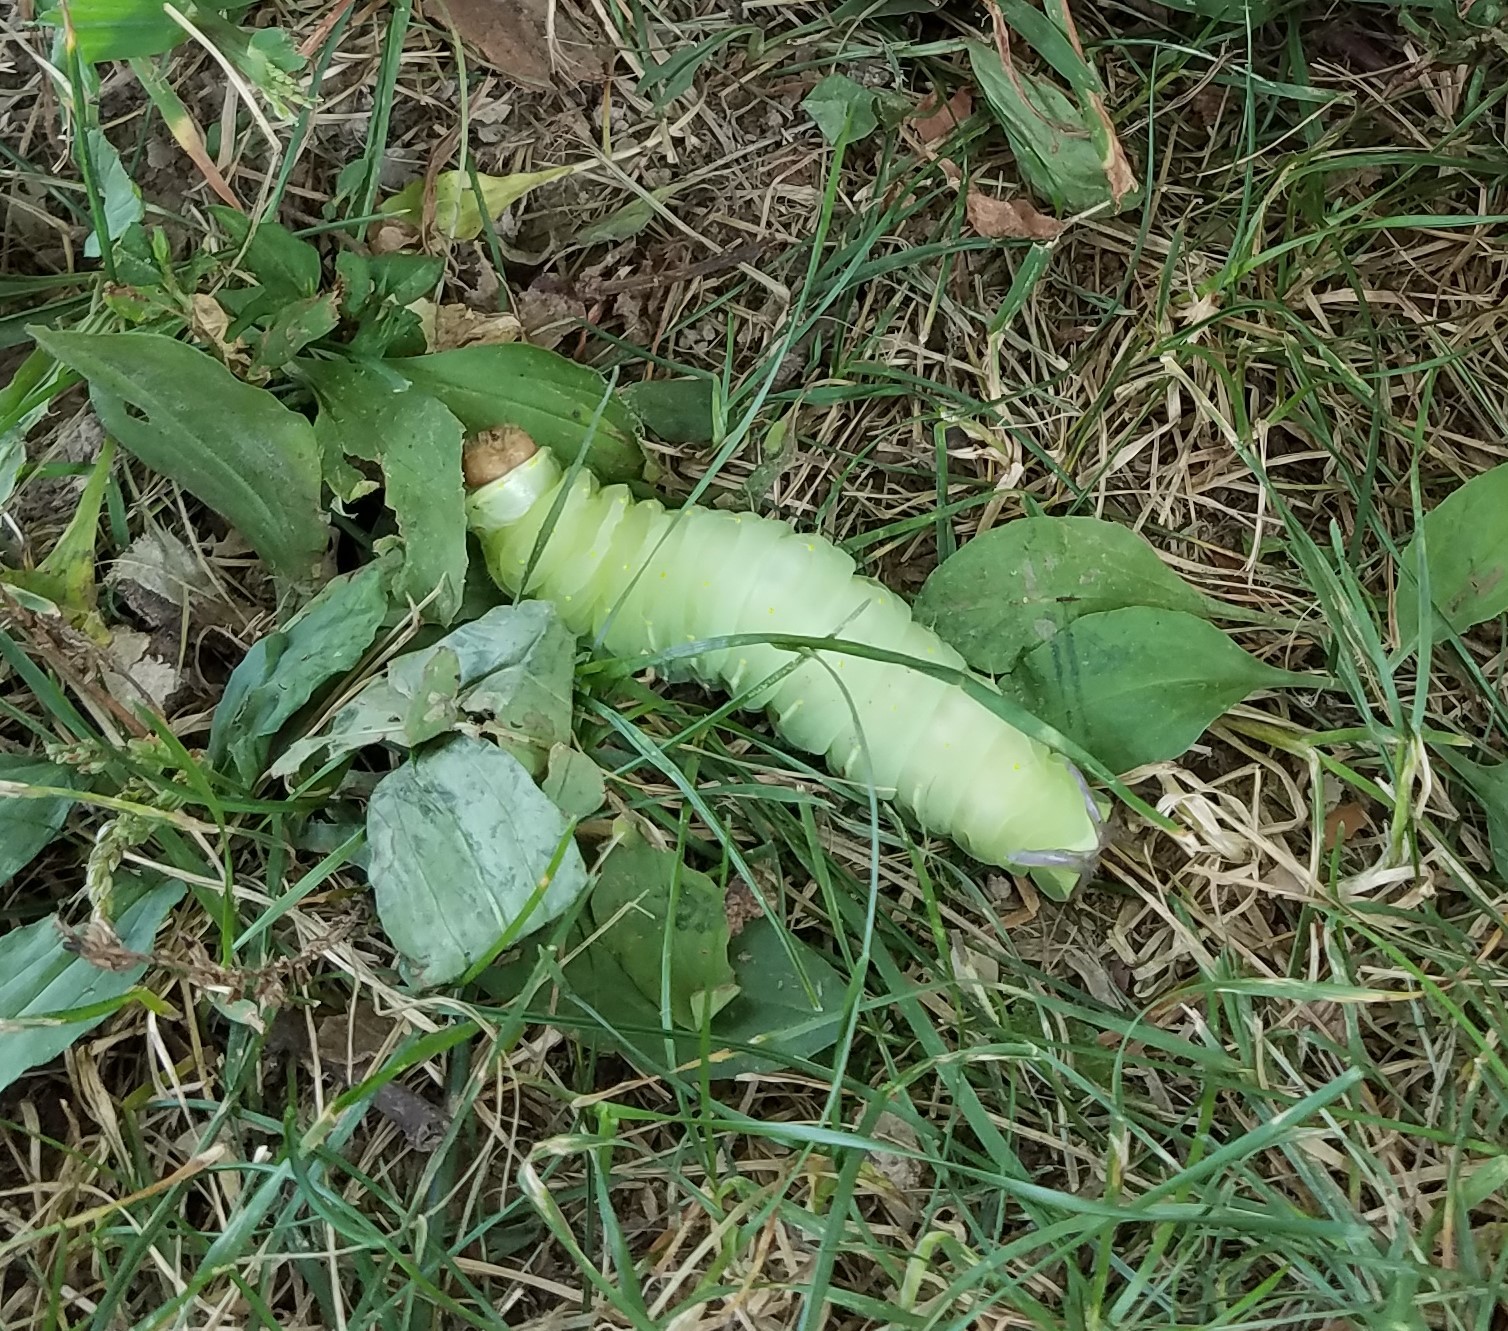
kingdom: Animalia
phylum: Arthropoda
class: Insecta
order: Lepidoptera
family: Saturniidae
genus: Antheraea
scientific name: Antheraea polyphemus
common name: Polyphemus moth
